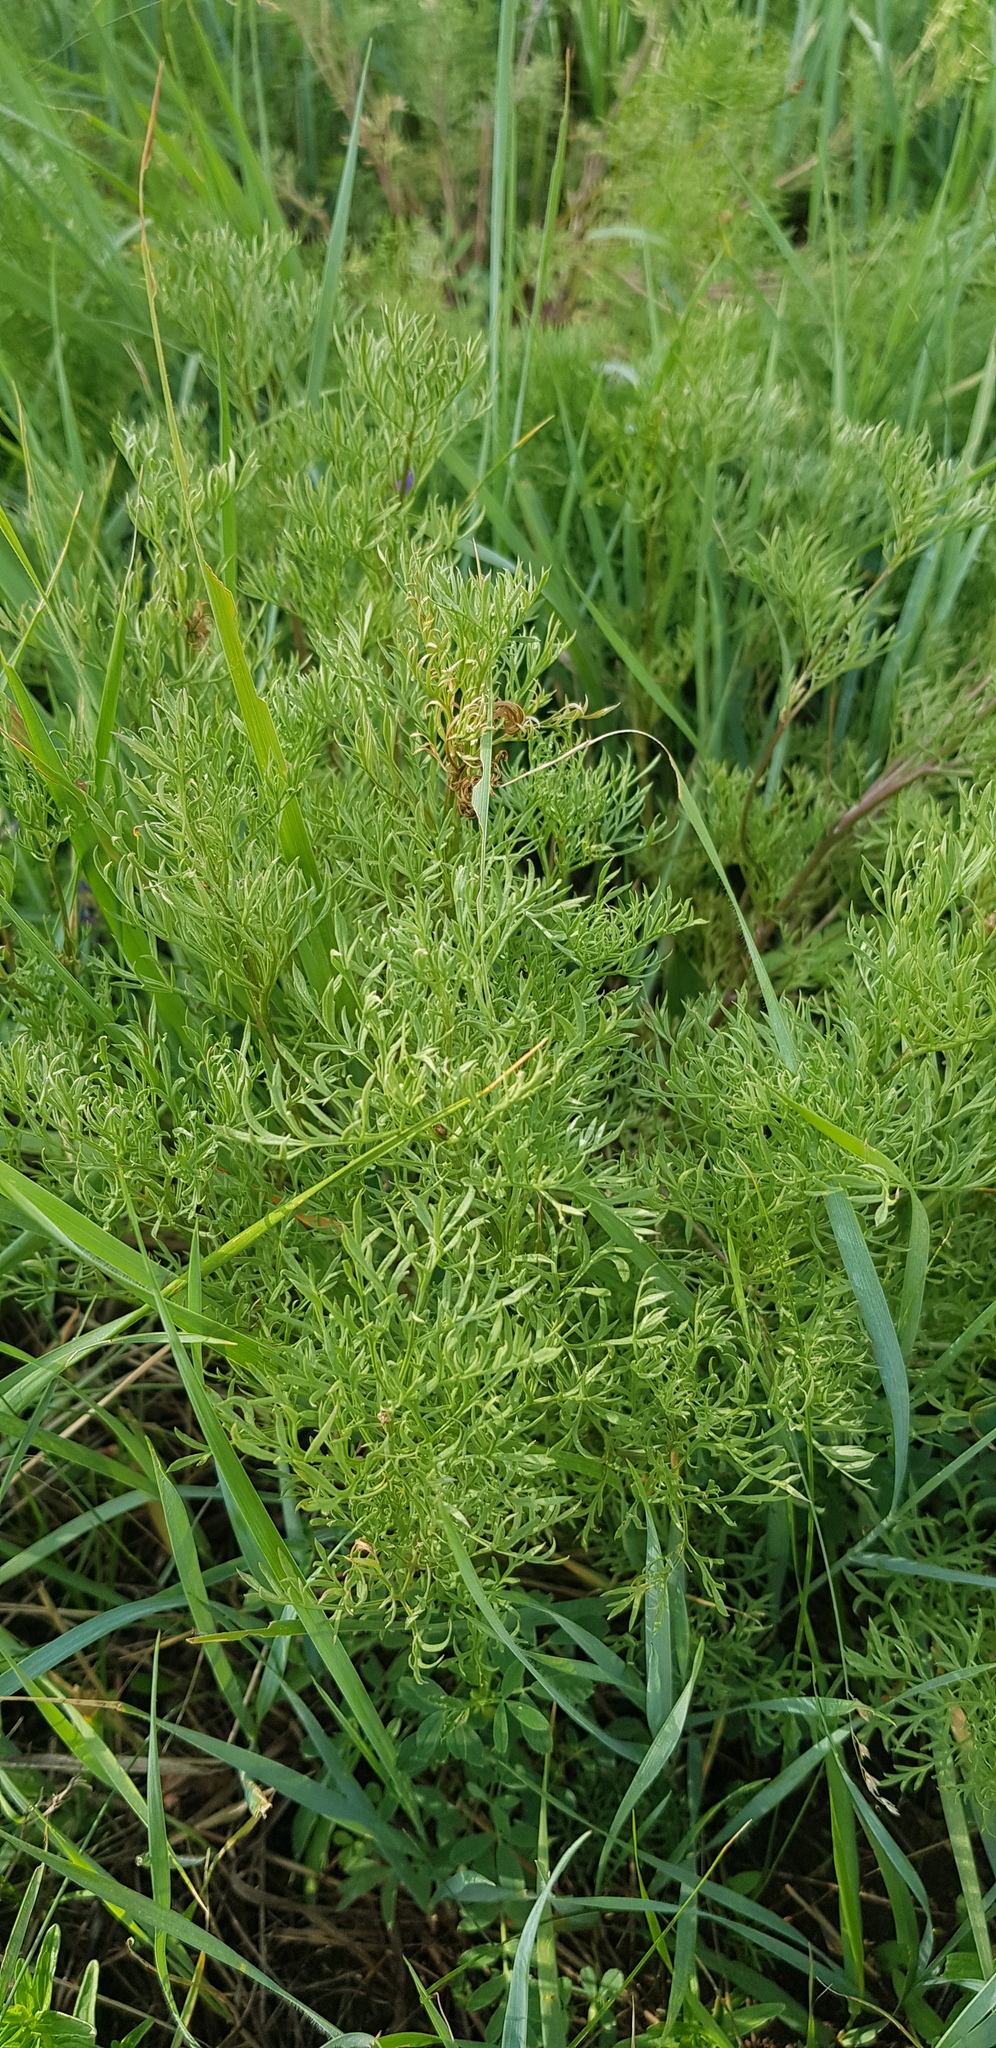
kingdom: Plantae
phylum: Tracheophyta
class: Magnoliopsida
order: Ranunculales
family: Ranunculaceae
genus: Adonis
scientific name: Adonis mongolica
